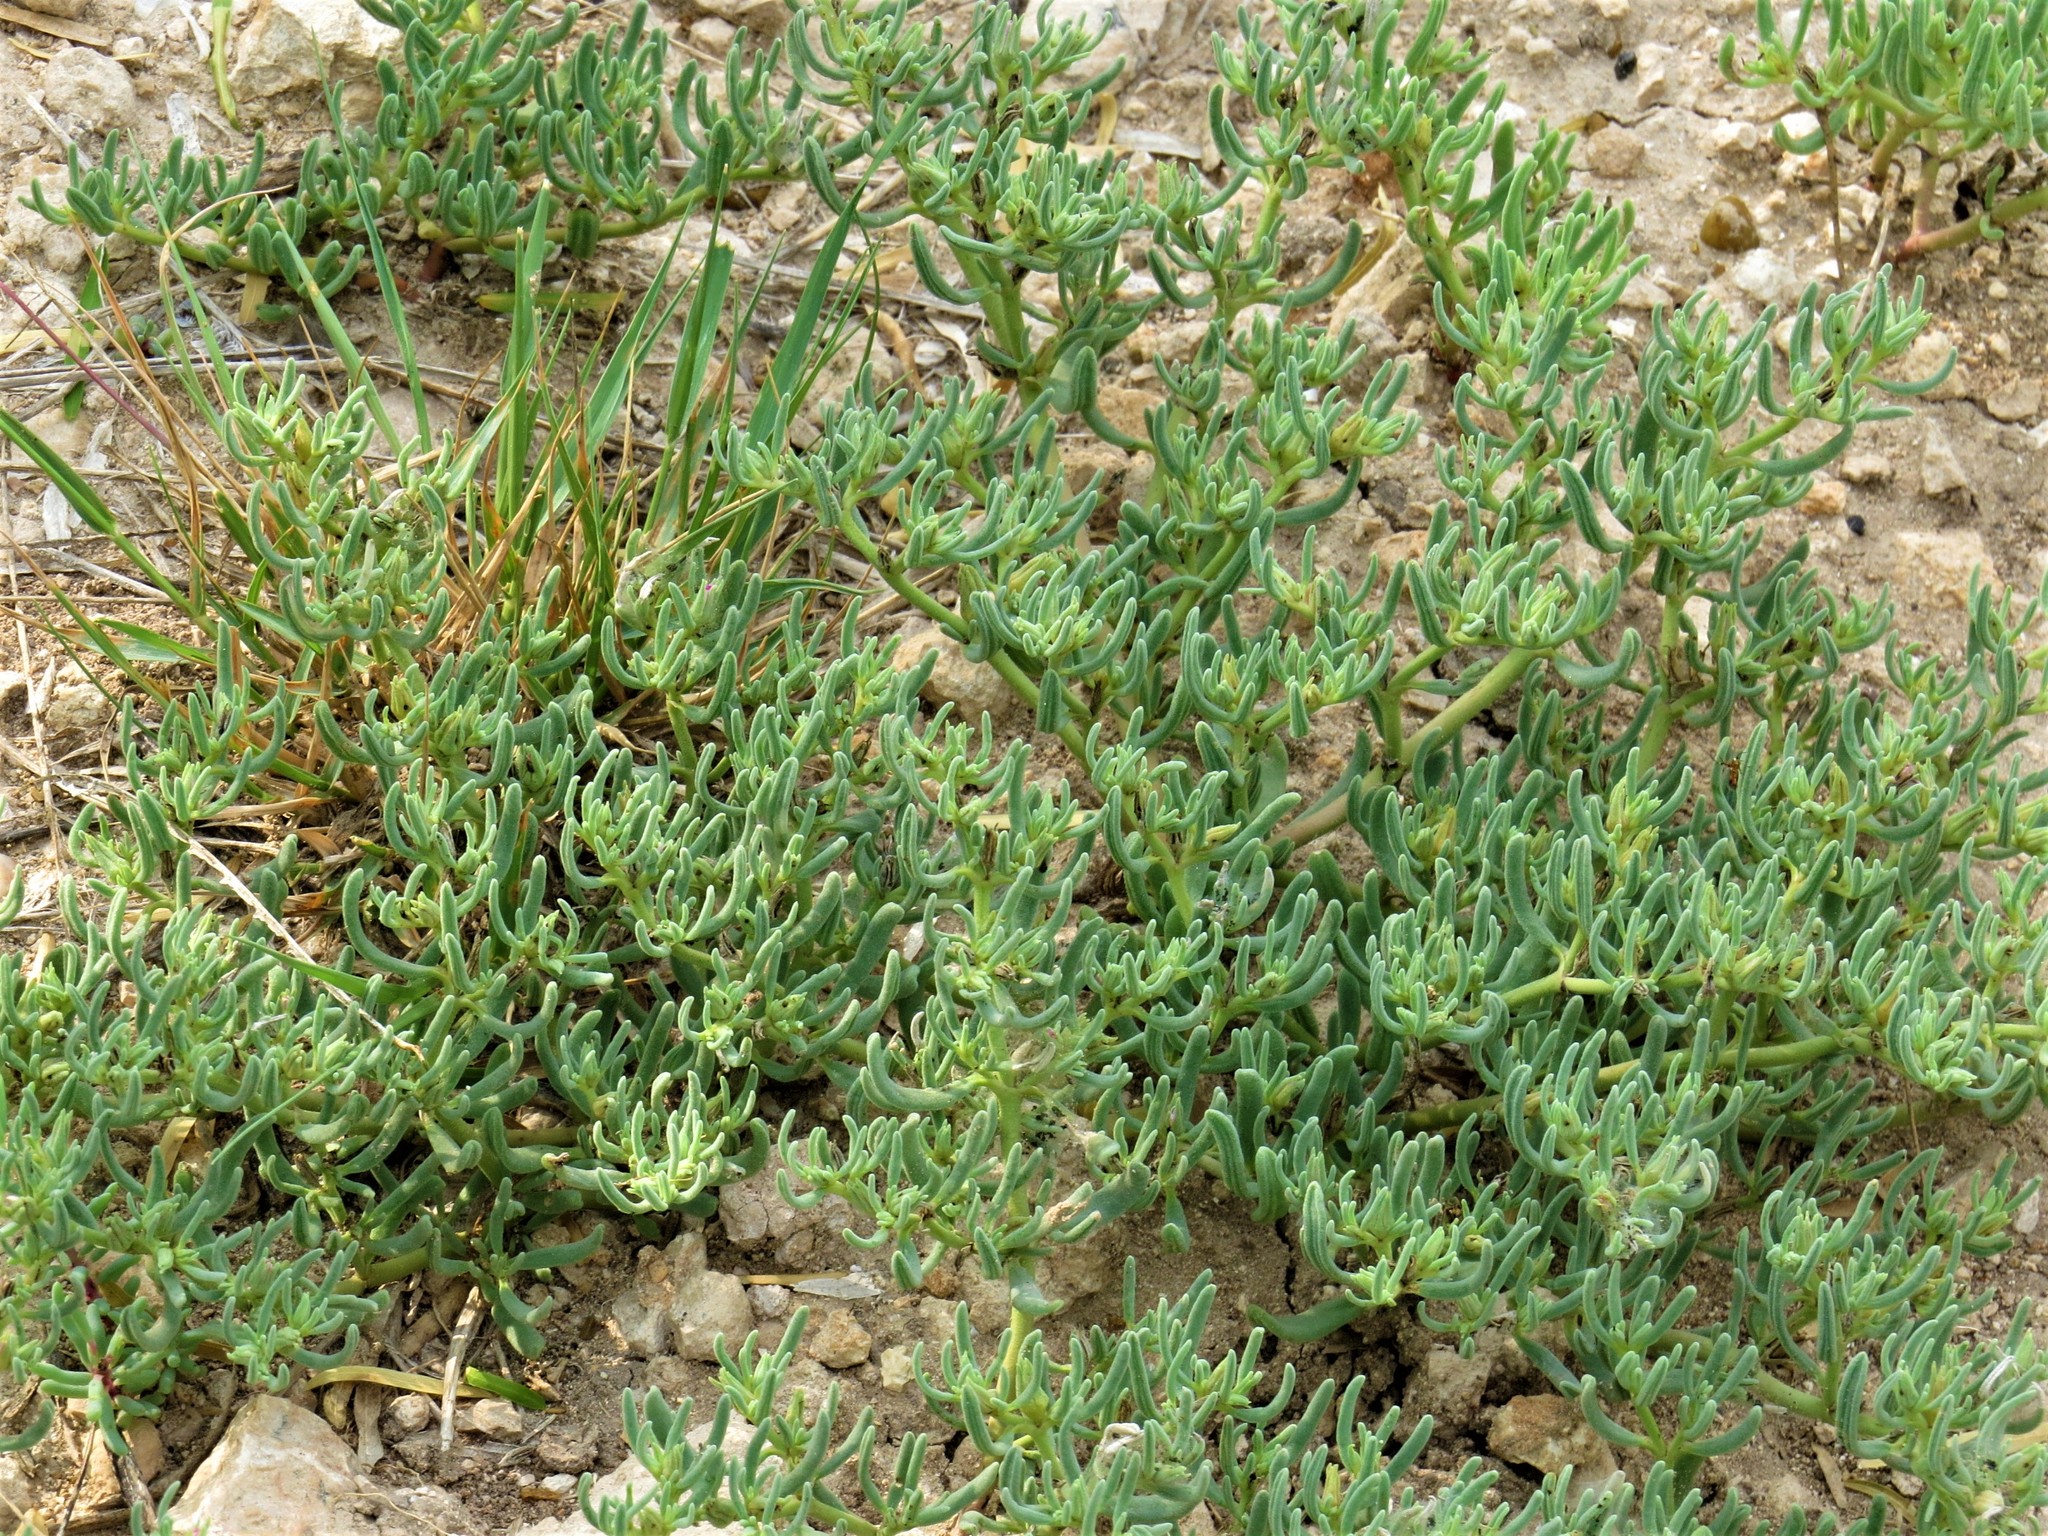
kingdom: Plantae
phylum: Tracheophyta
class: Magnoliopsida
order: Caryophyllales
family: Aizoaceae
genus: Sesuvium
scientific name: Sesuvium revolutifolium
